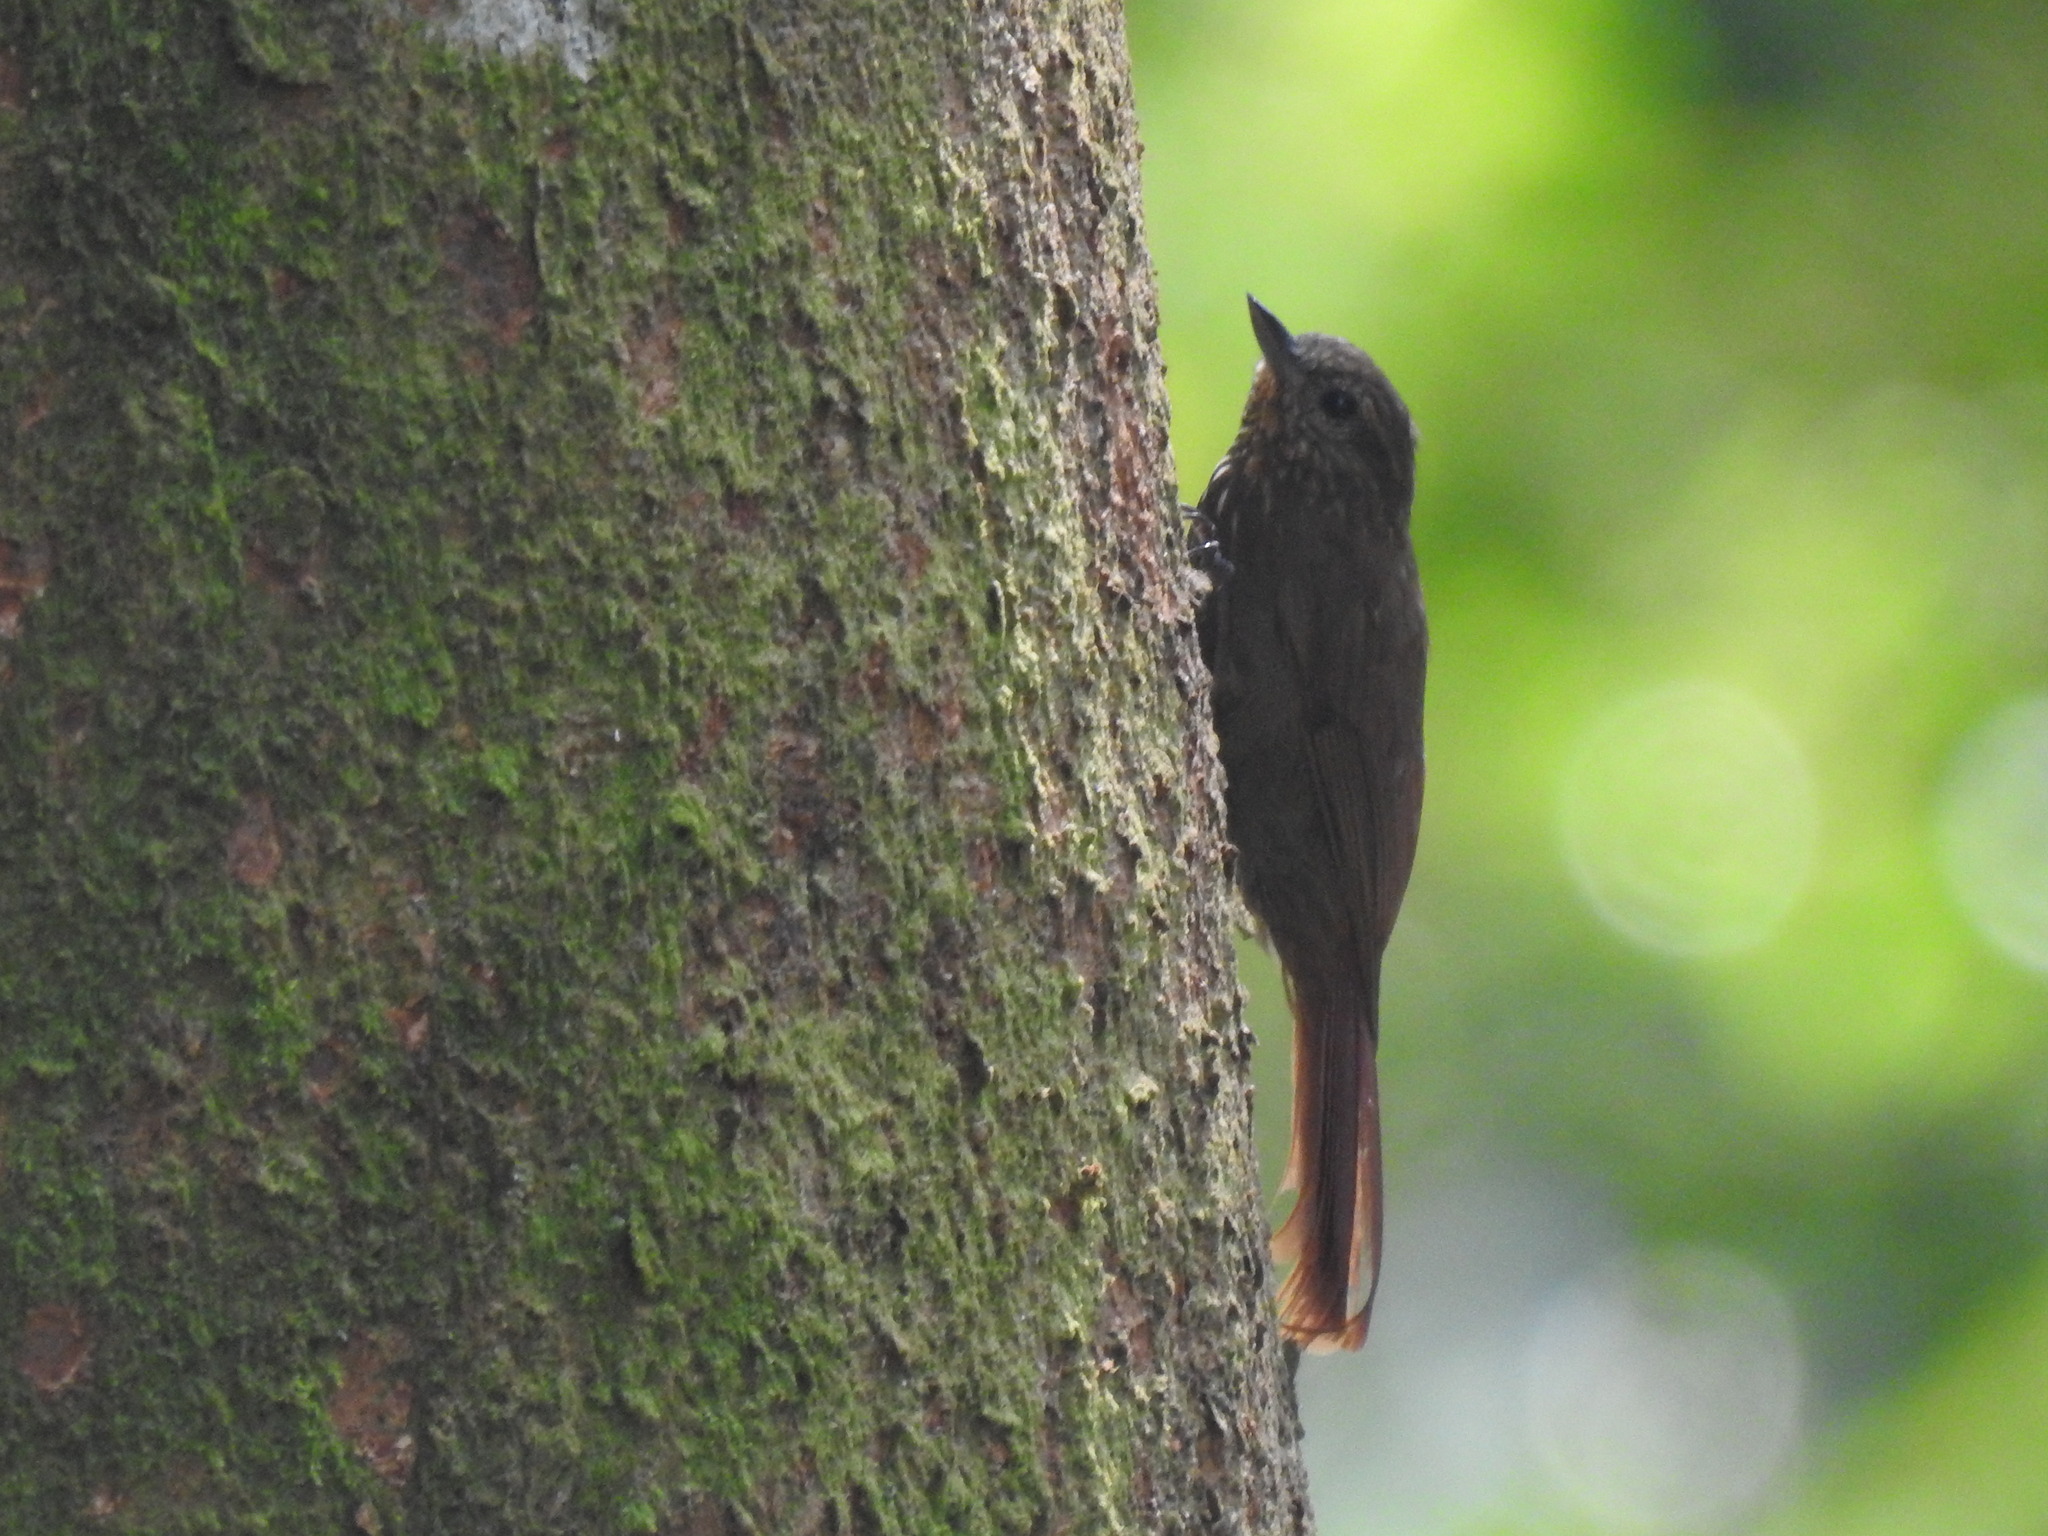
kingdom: Animalia
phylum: Chordata
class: Aves
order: Passeriformes
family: Furnariidae
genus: Glyphorynchus
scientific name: Glyphorynchus spirurus
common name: Wedge-billed woodcreeper
